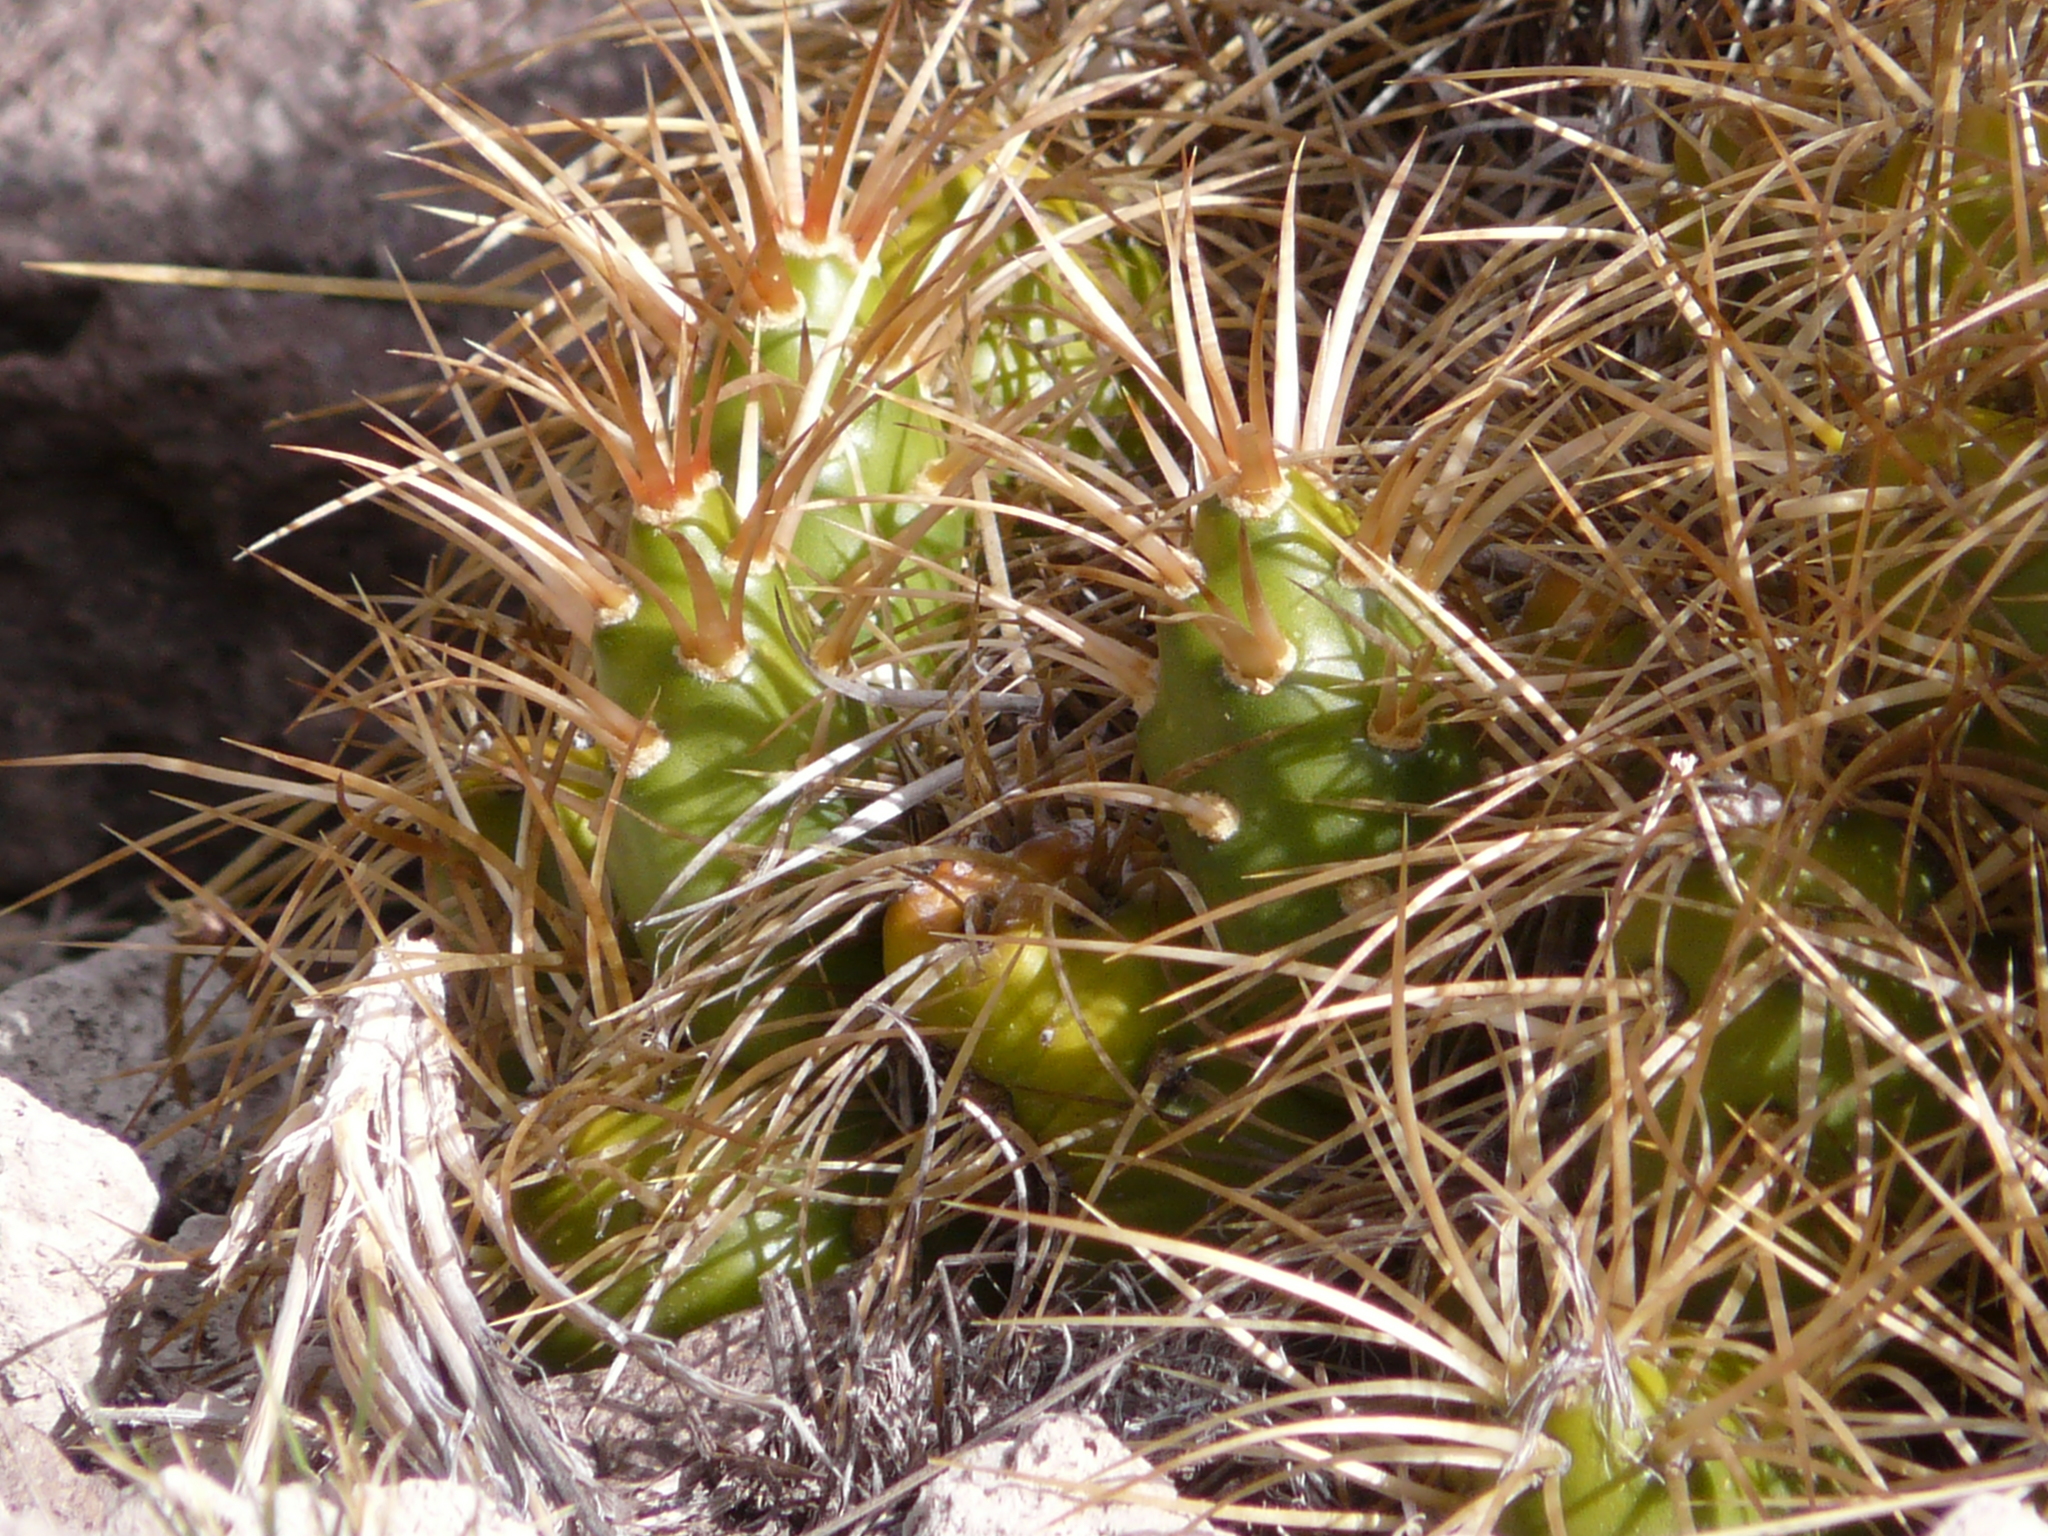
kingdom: Plantae
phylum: Tracheophyta
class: Magnoliopsida
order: Caryophyllales
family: Cactaceae
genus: Maihueniopsis
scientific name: Maihueniopsis platyacantha
